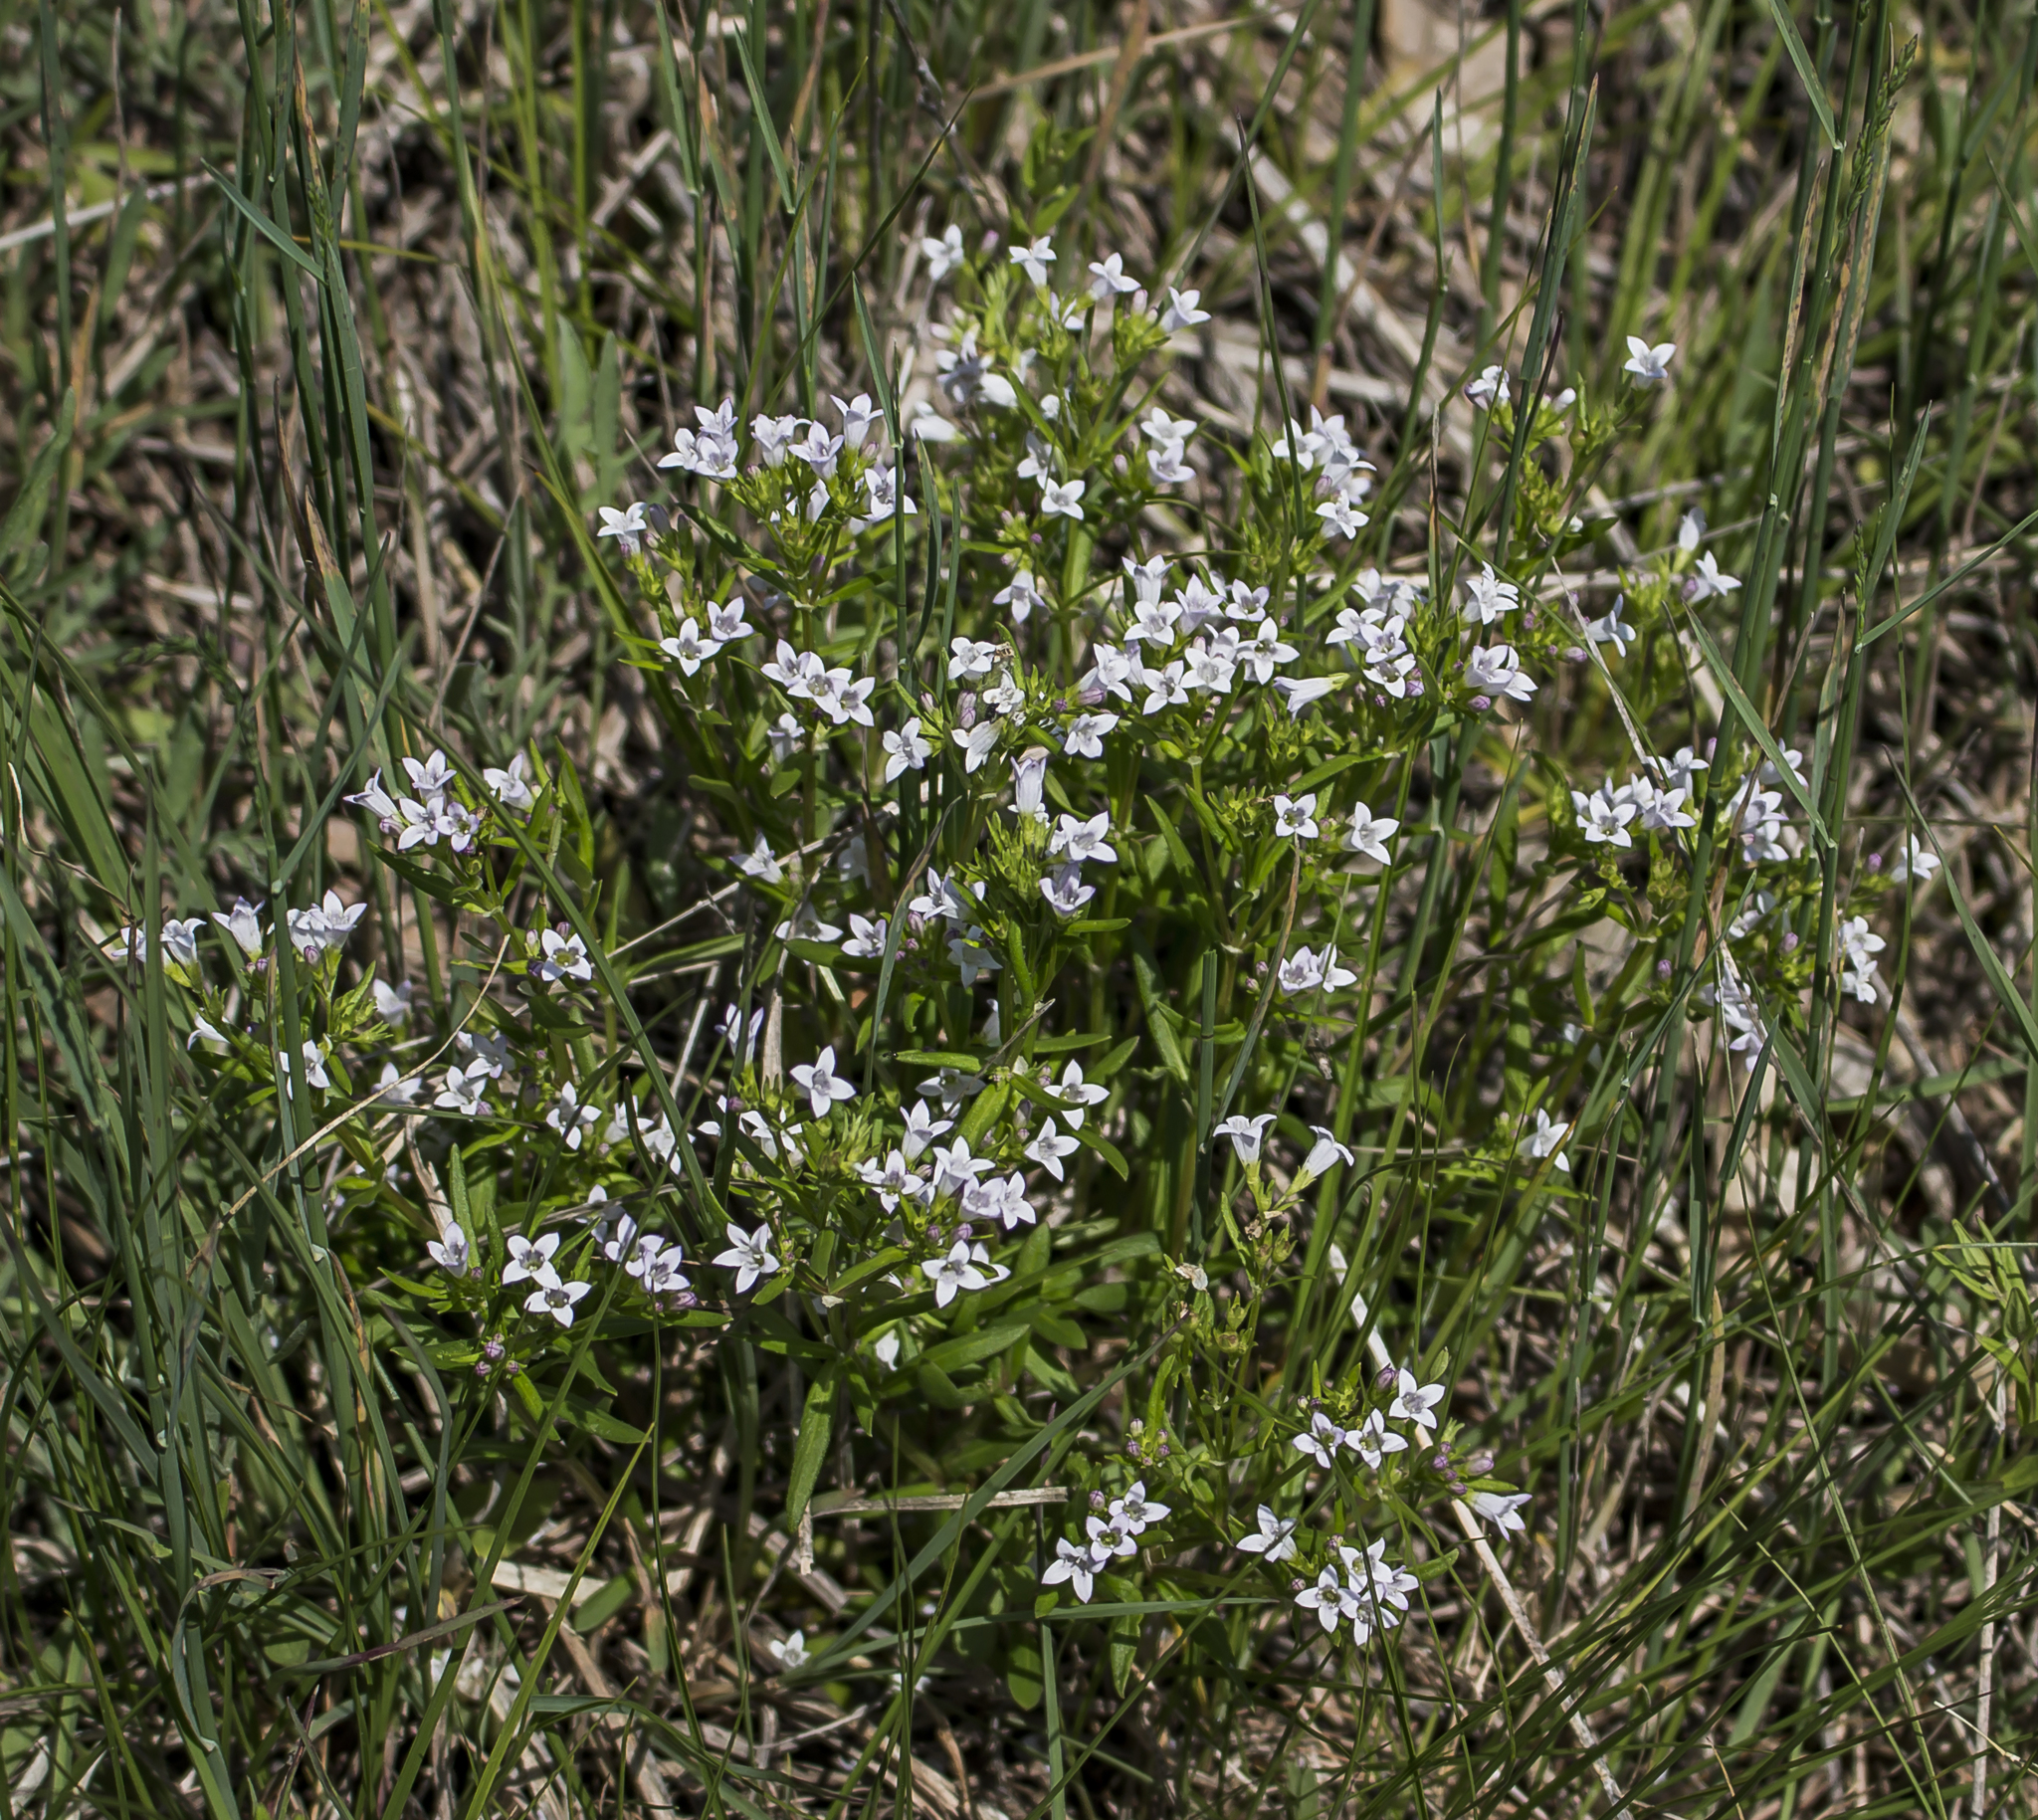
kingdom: Plantae
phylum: Tracheophyta
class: Magnoliopsida
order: Gentianales
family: Rubiaceae
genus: Houstonia
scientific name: Houstonia longifolia
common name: Long-leaved bluets
